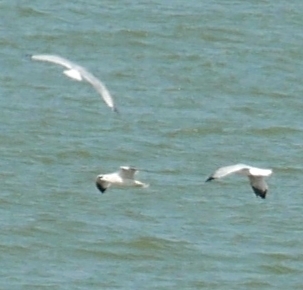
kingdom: Animalia
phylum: Chordata
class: Aves
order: Charadriiformes
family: Laridae
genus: Larus
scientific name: Larus delawarensis
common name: Ring-billed gull
